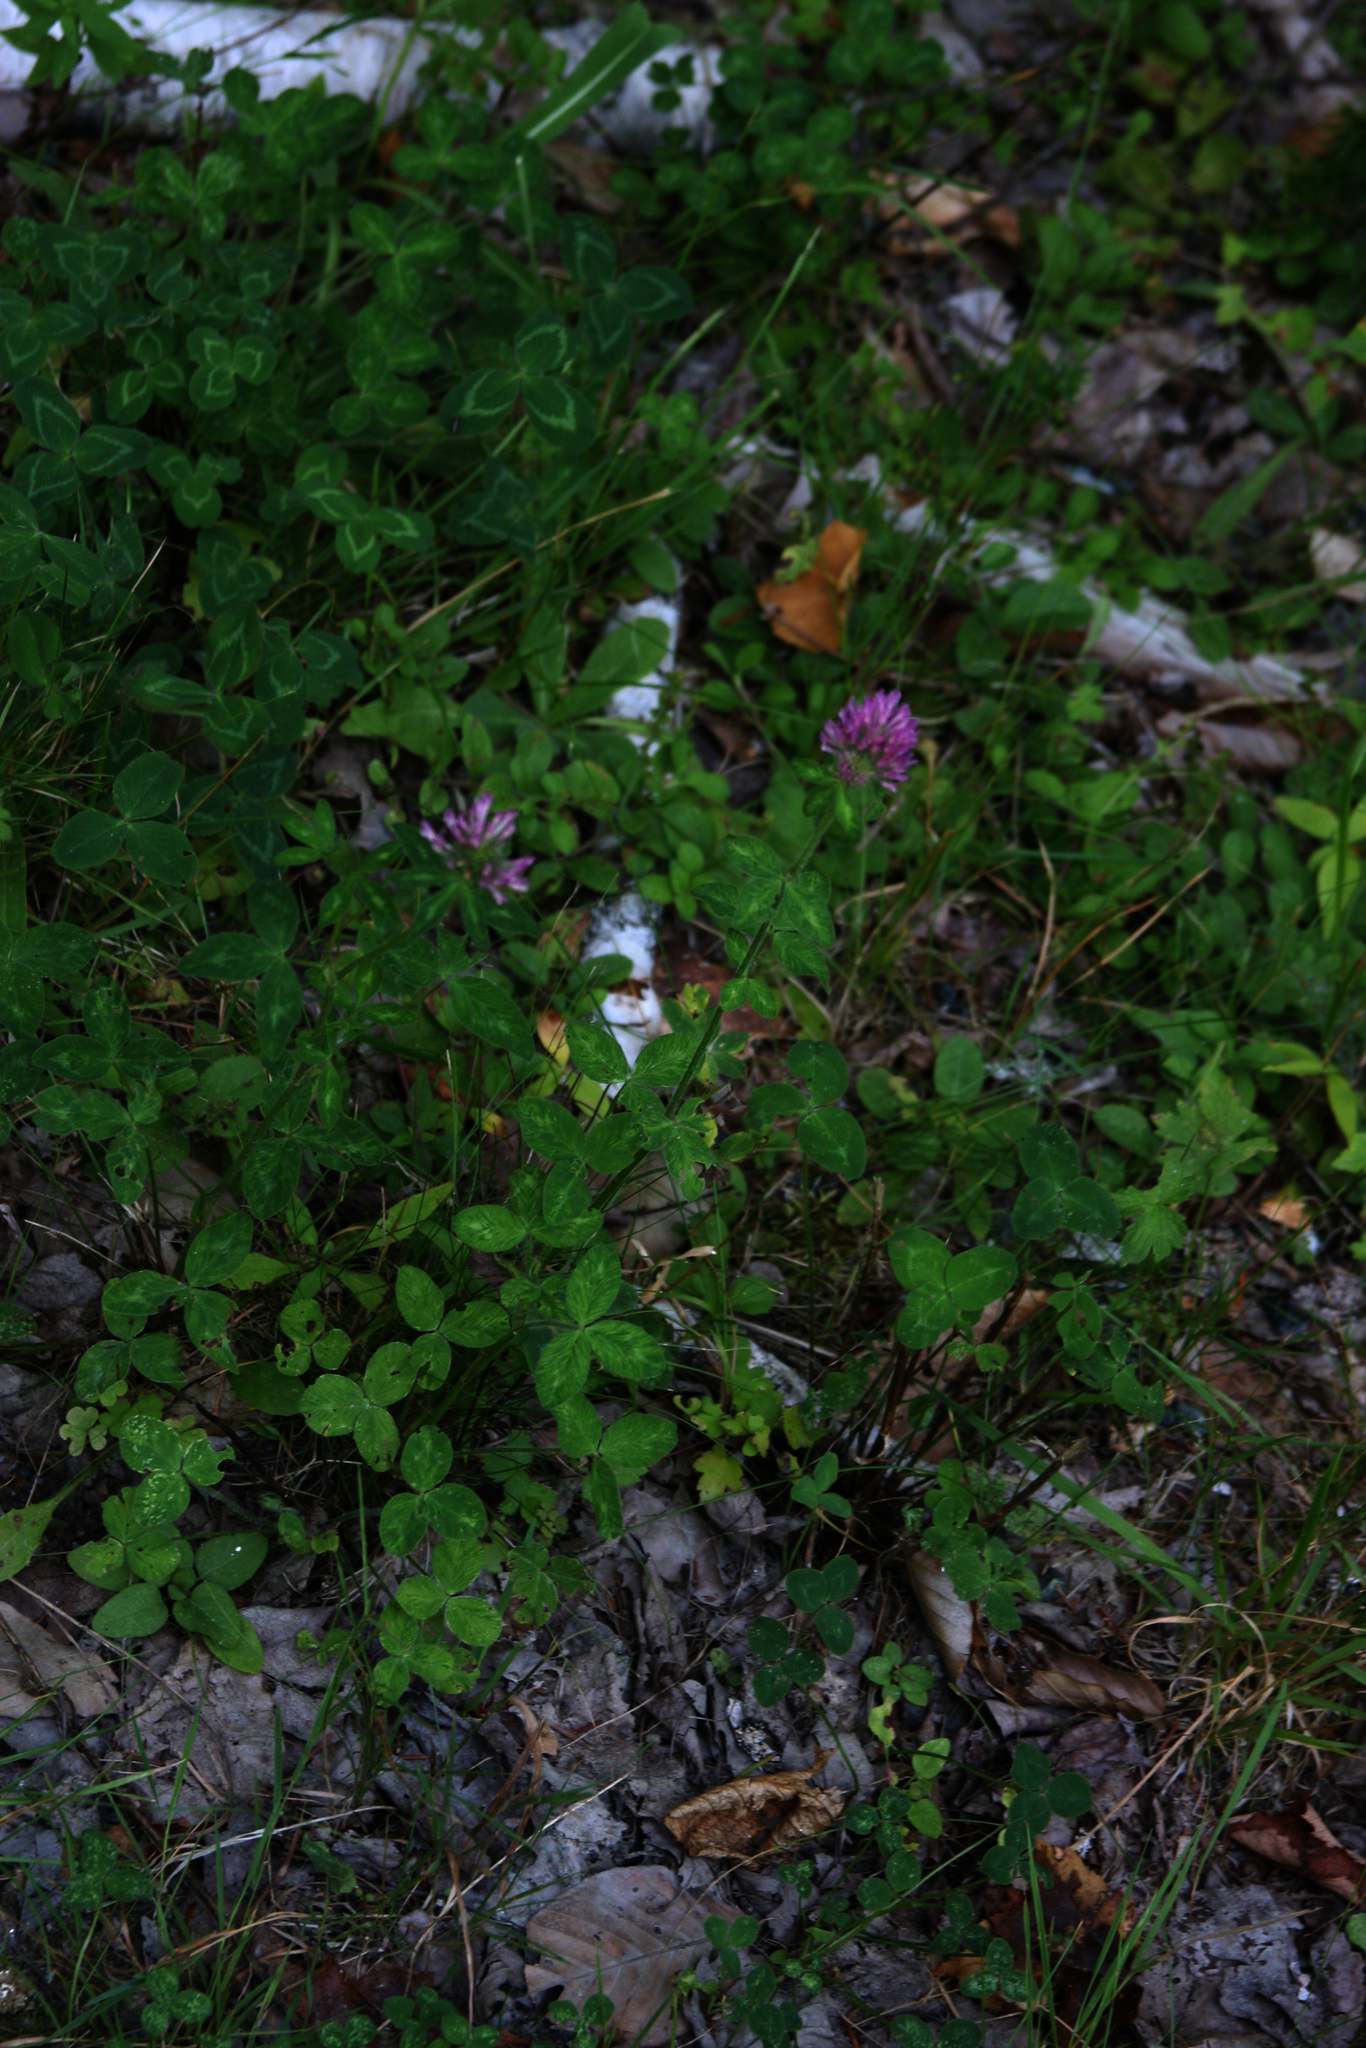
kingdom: Plantae
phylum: Tracheophyta
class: Magnoliopsida
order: Fabales
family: Fabaceae
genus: Trifolium
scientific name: Trifolium pratense
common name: Red clover
